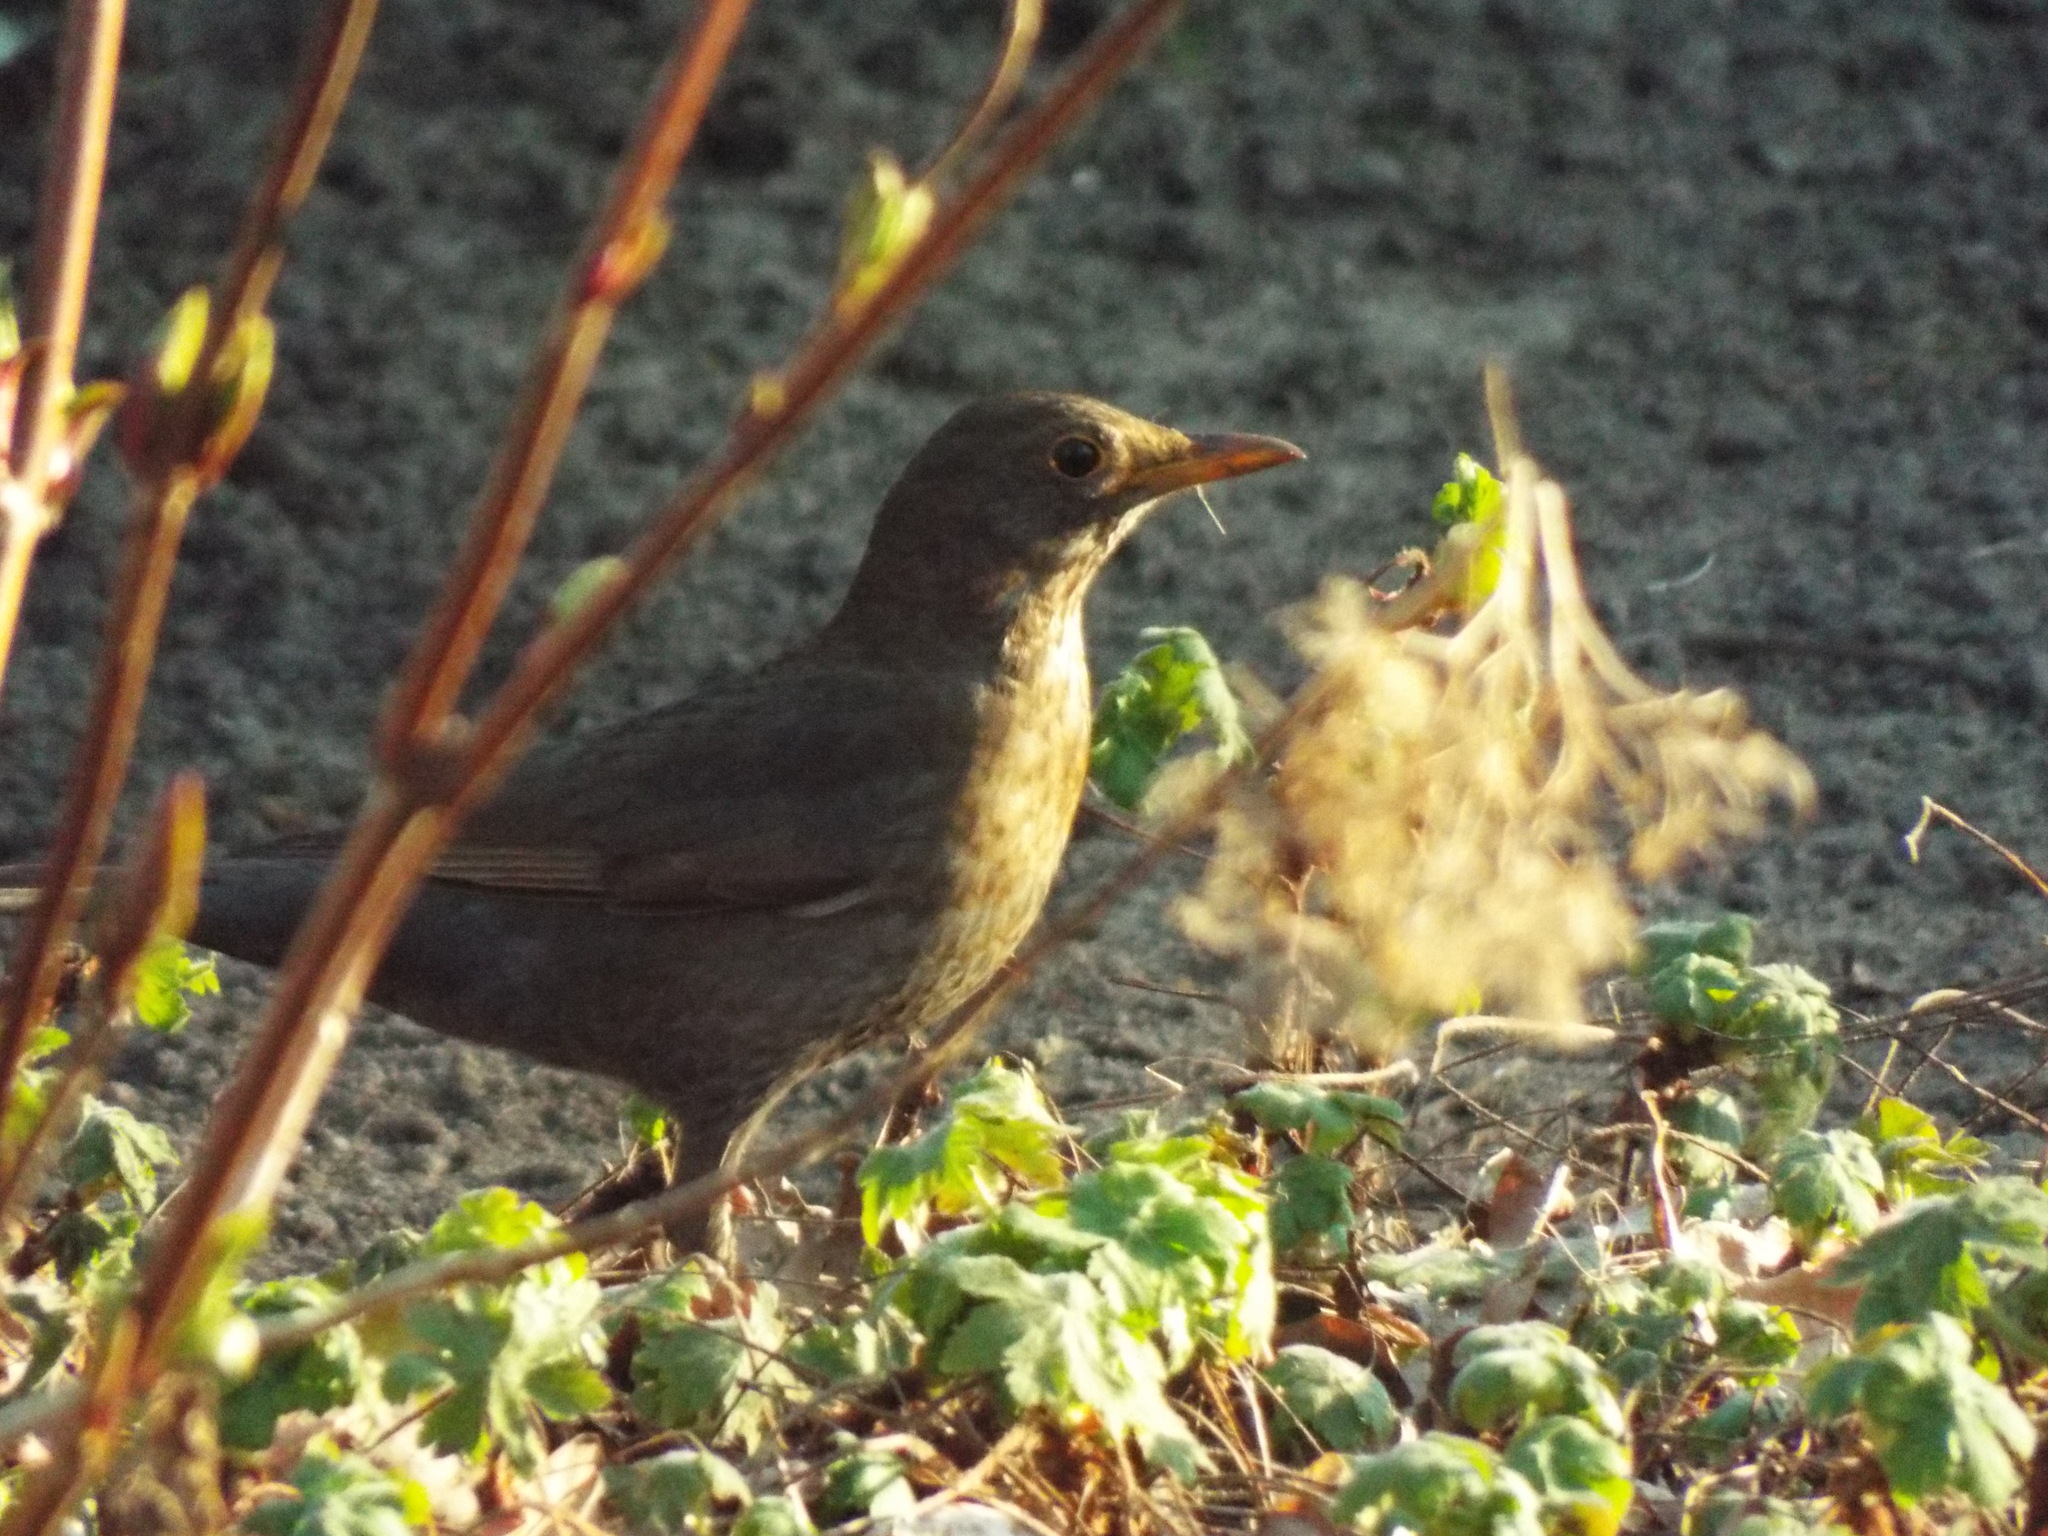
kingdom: Animalia
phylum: Chordata
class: Aves
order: Passeriformes
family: Turdidae
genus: Turdus
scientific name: Turdus merula
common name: Common blackbird
